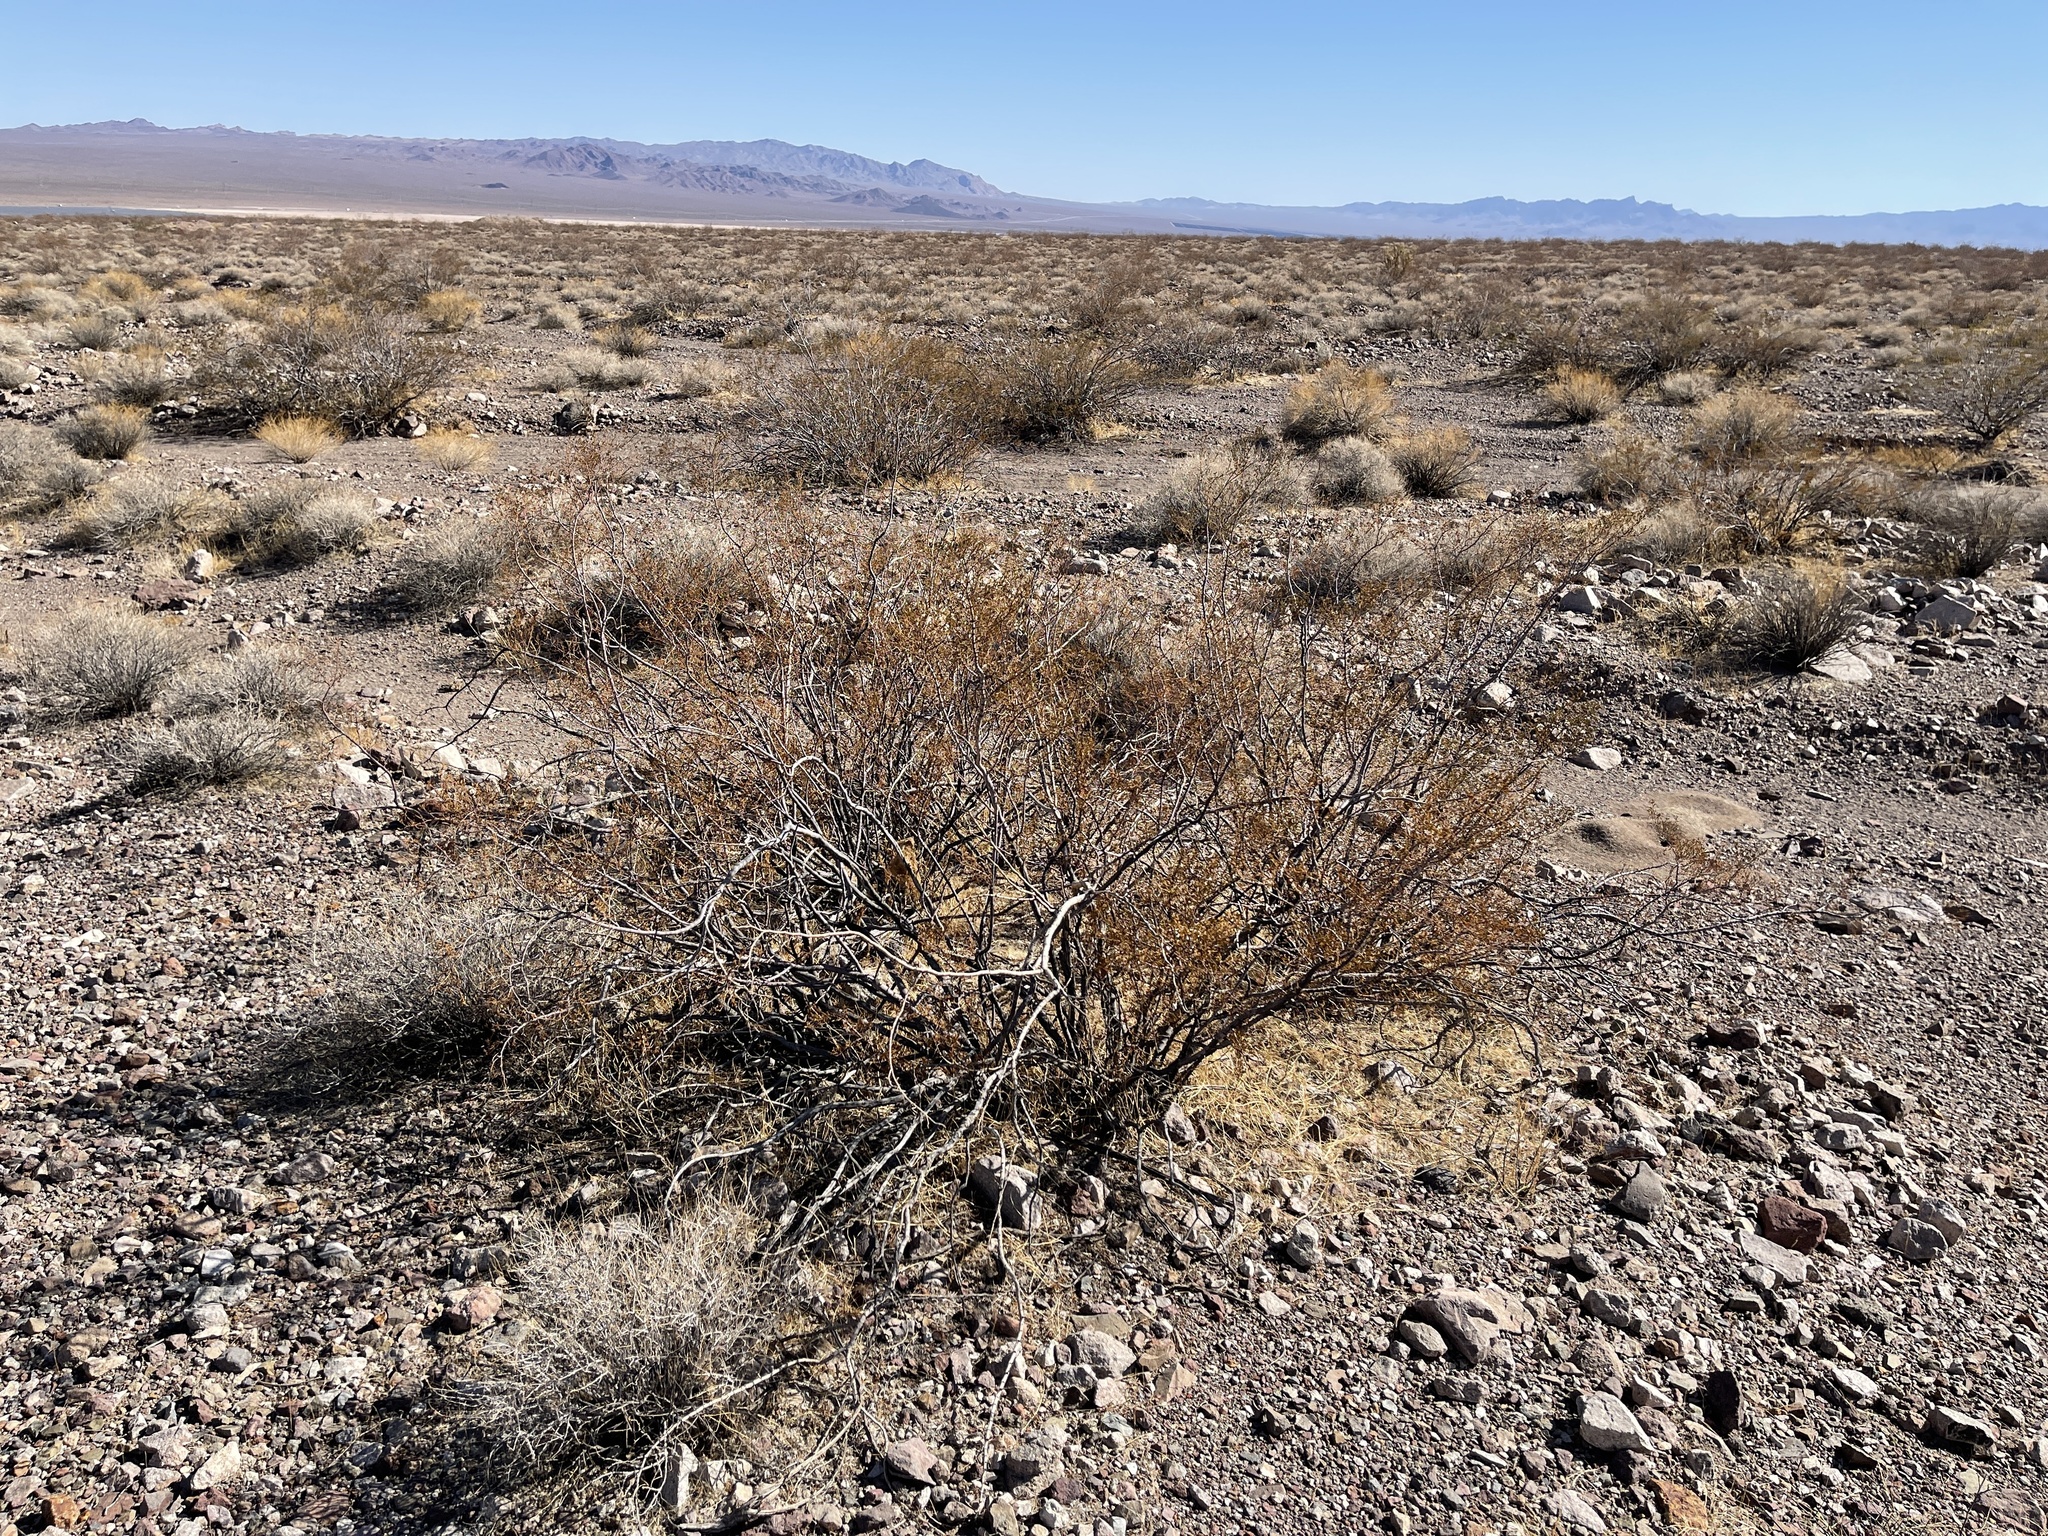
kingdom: Plantae
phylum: Tracheophyta
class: Magnoliopsida
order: Zygophyllales
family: Zygophyllaceae
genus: Larrea
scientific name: Larrea tridentata
